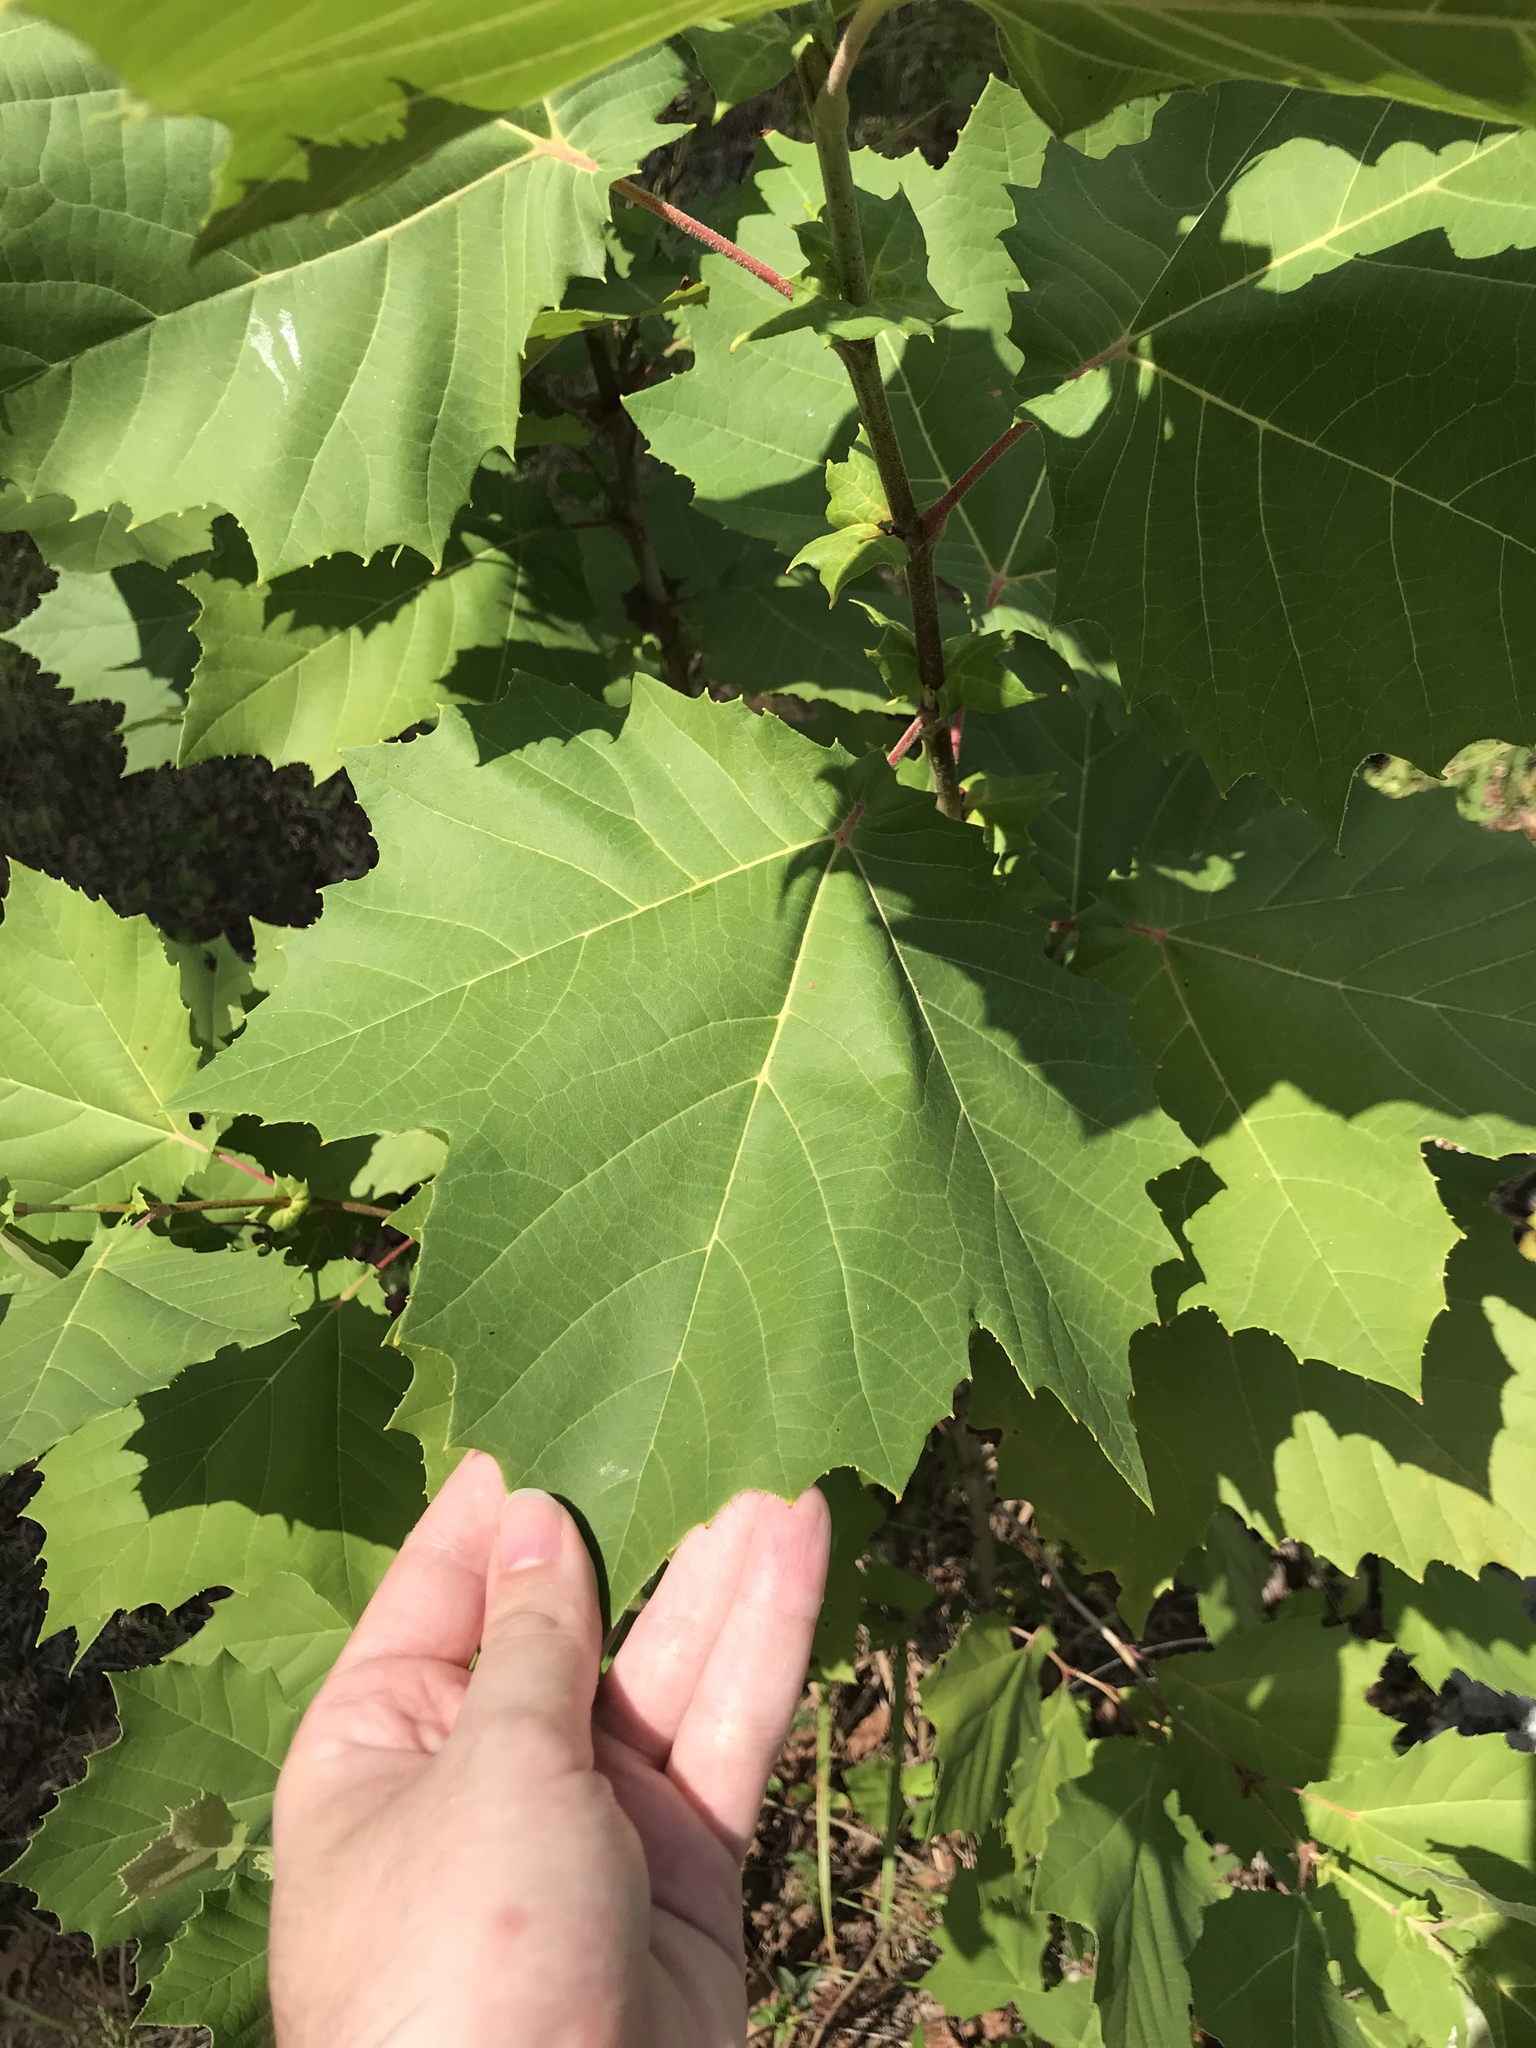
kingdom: Plantae
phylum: Tracheophyta
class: Magnoliopsida
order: Proteales
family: Platanaceae
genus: Platanus
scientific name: Platanus occidentalis
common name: American sycamore
